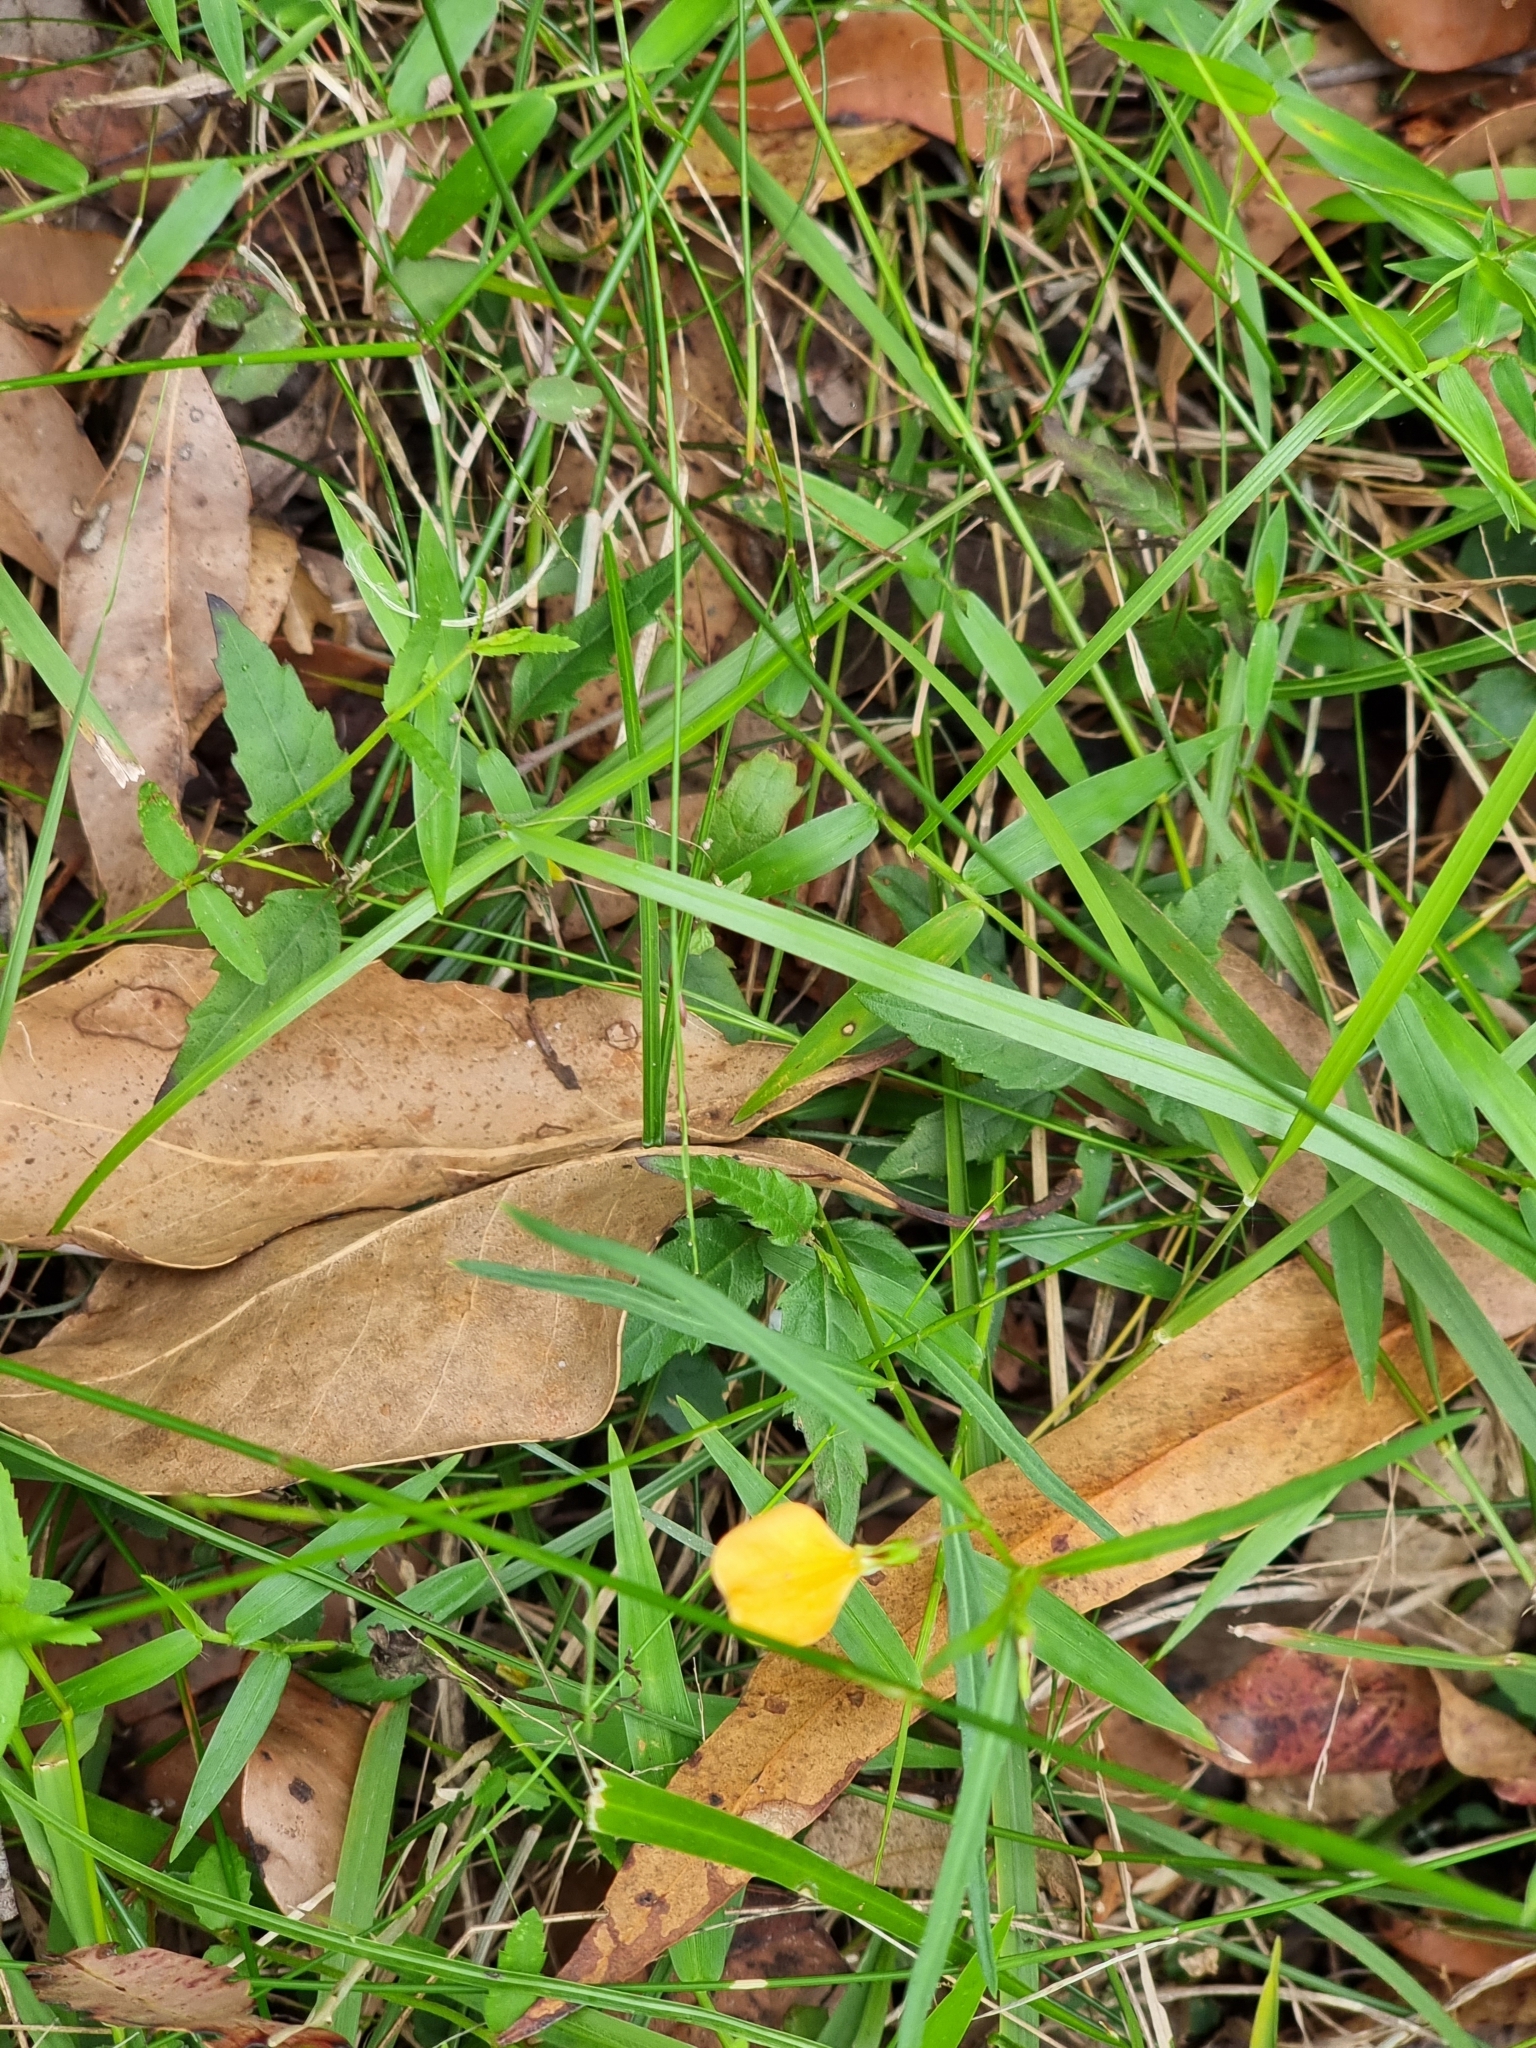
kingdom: Plantae
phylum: Tracheophyta
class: Magnoliopsida
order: Malpighiales
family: Violaceae
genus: Pigea
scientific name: Pigea stellarioides
